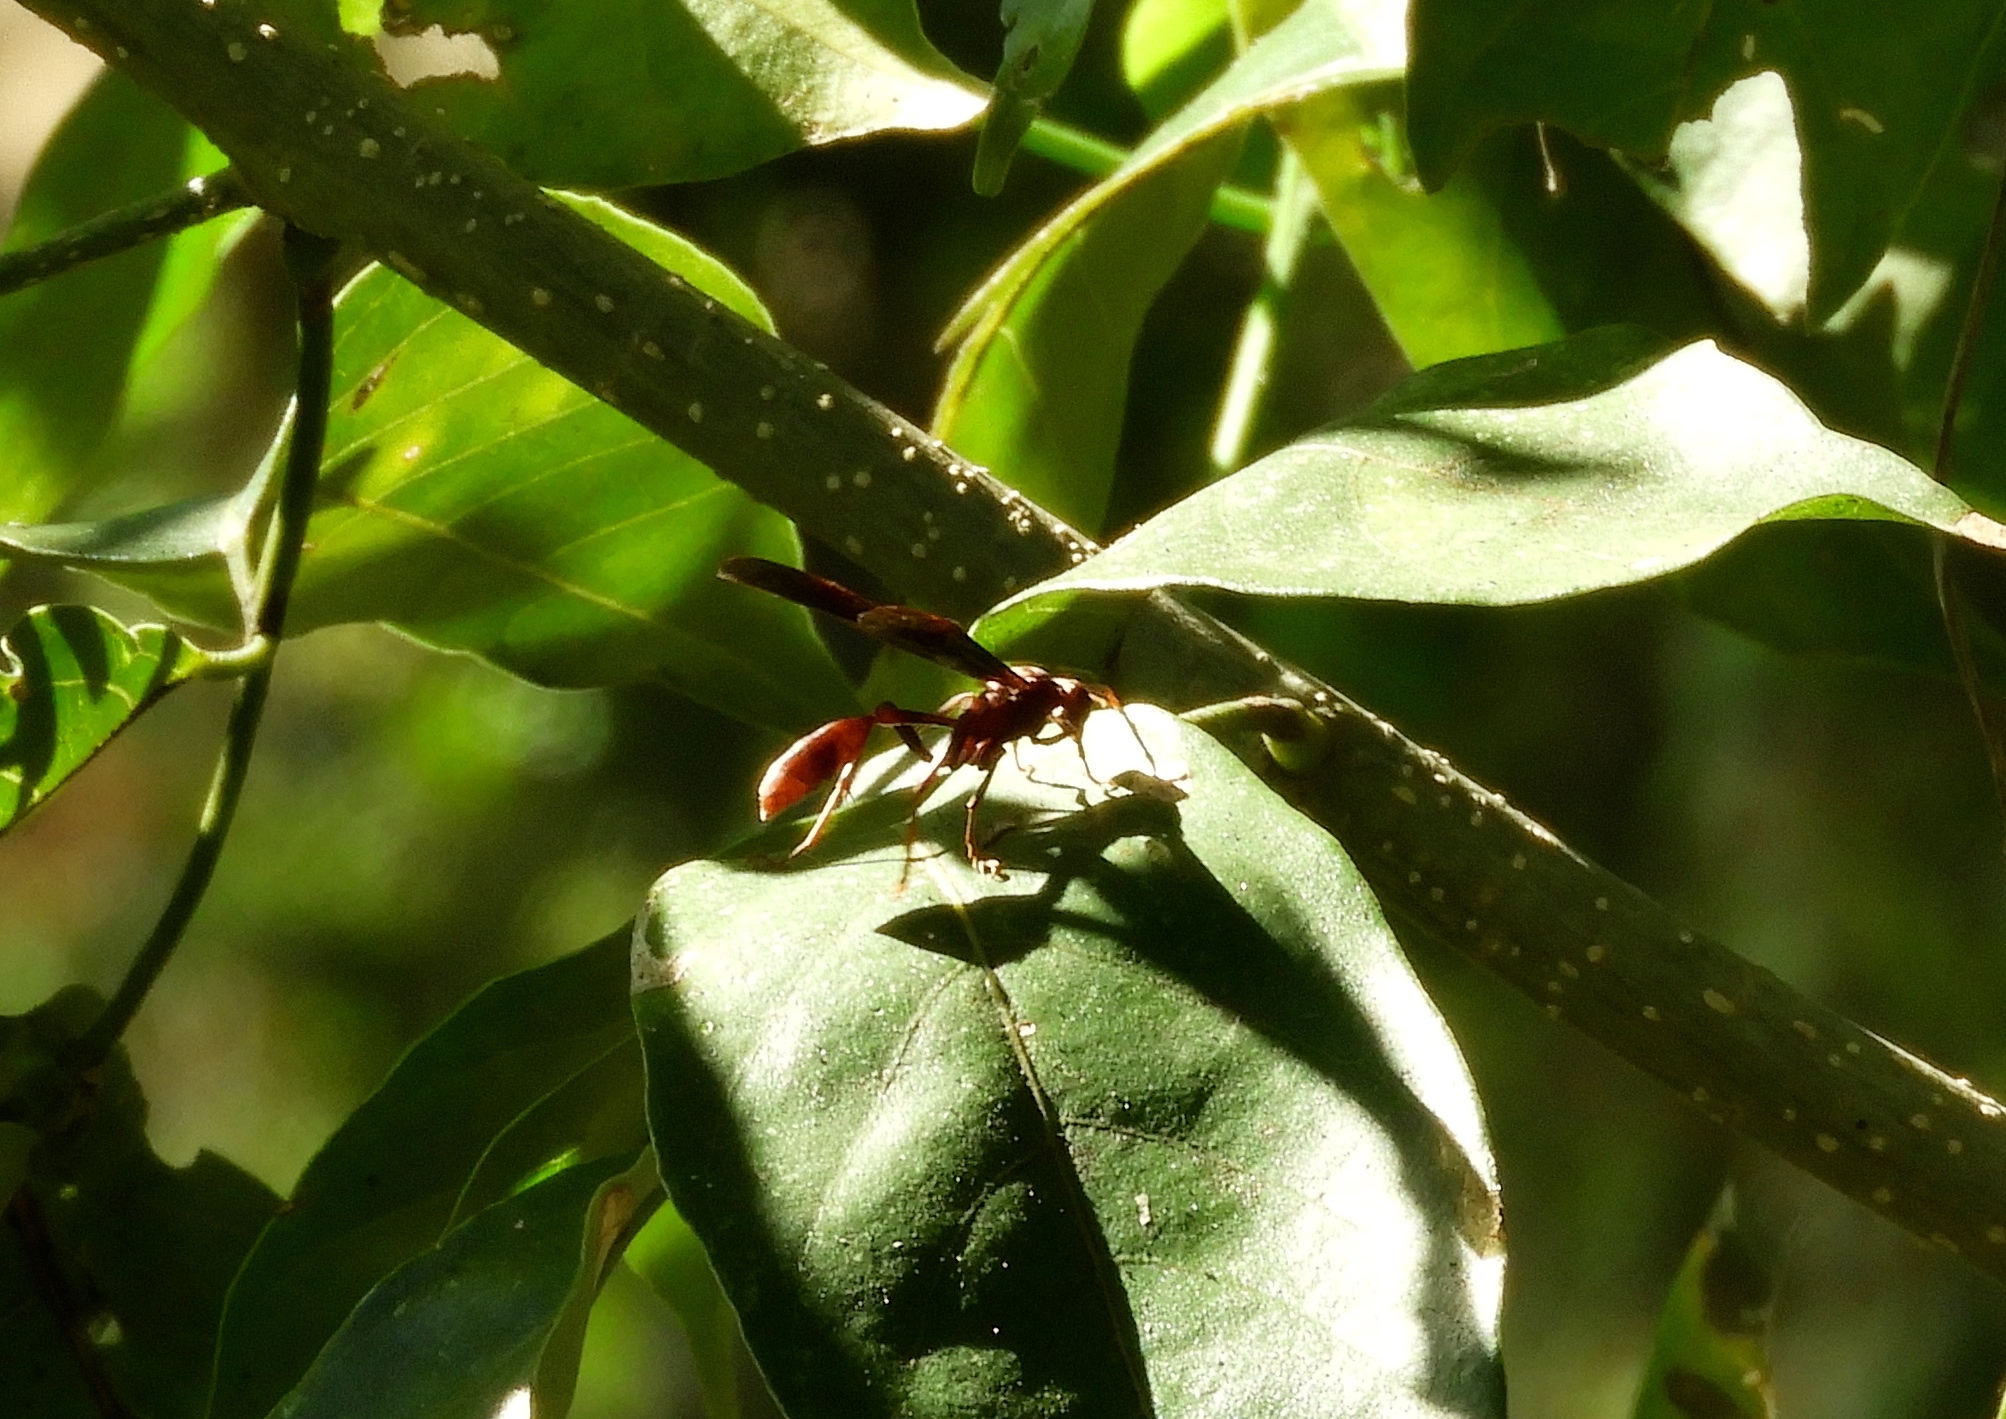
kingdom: Animalia
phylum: Arthropoda
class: Insecta
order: Hymenoptera
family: Vespidae
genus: Mischocyttarus
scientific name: Mischocyttarus melanarius
